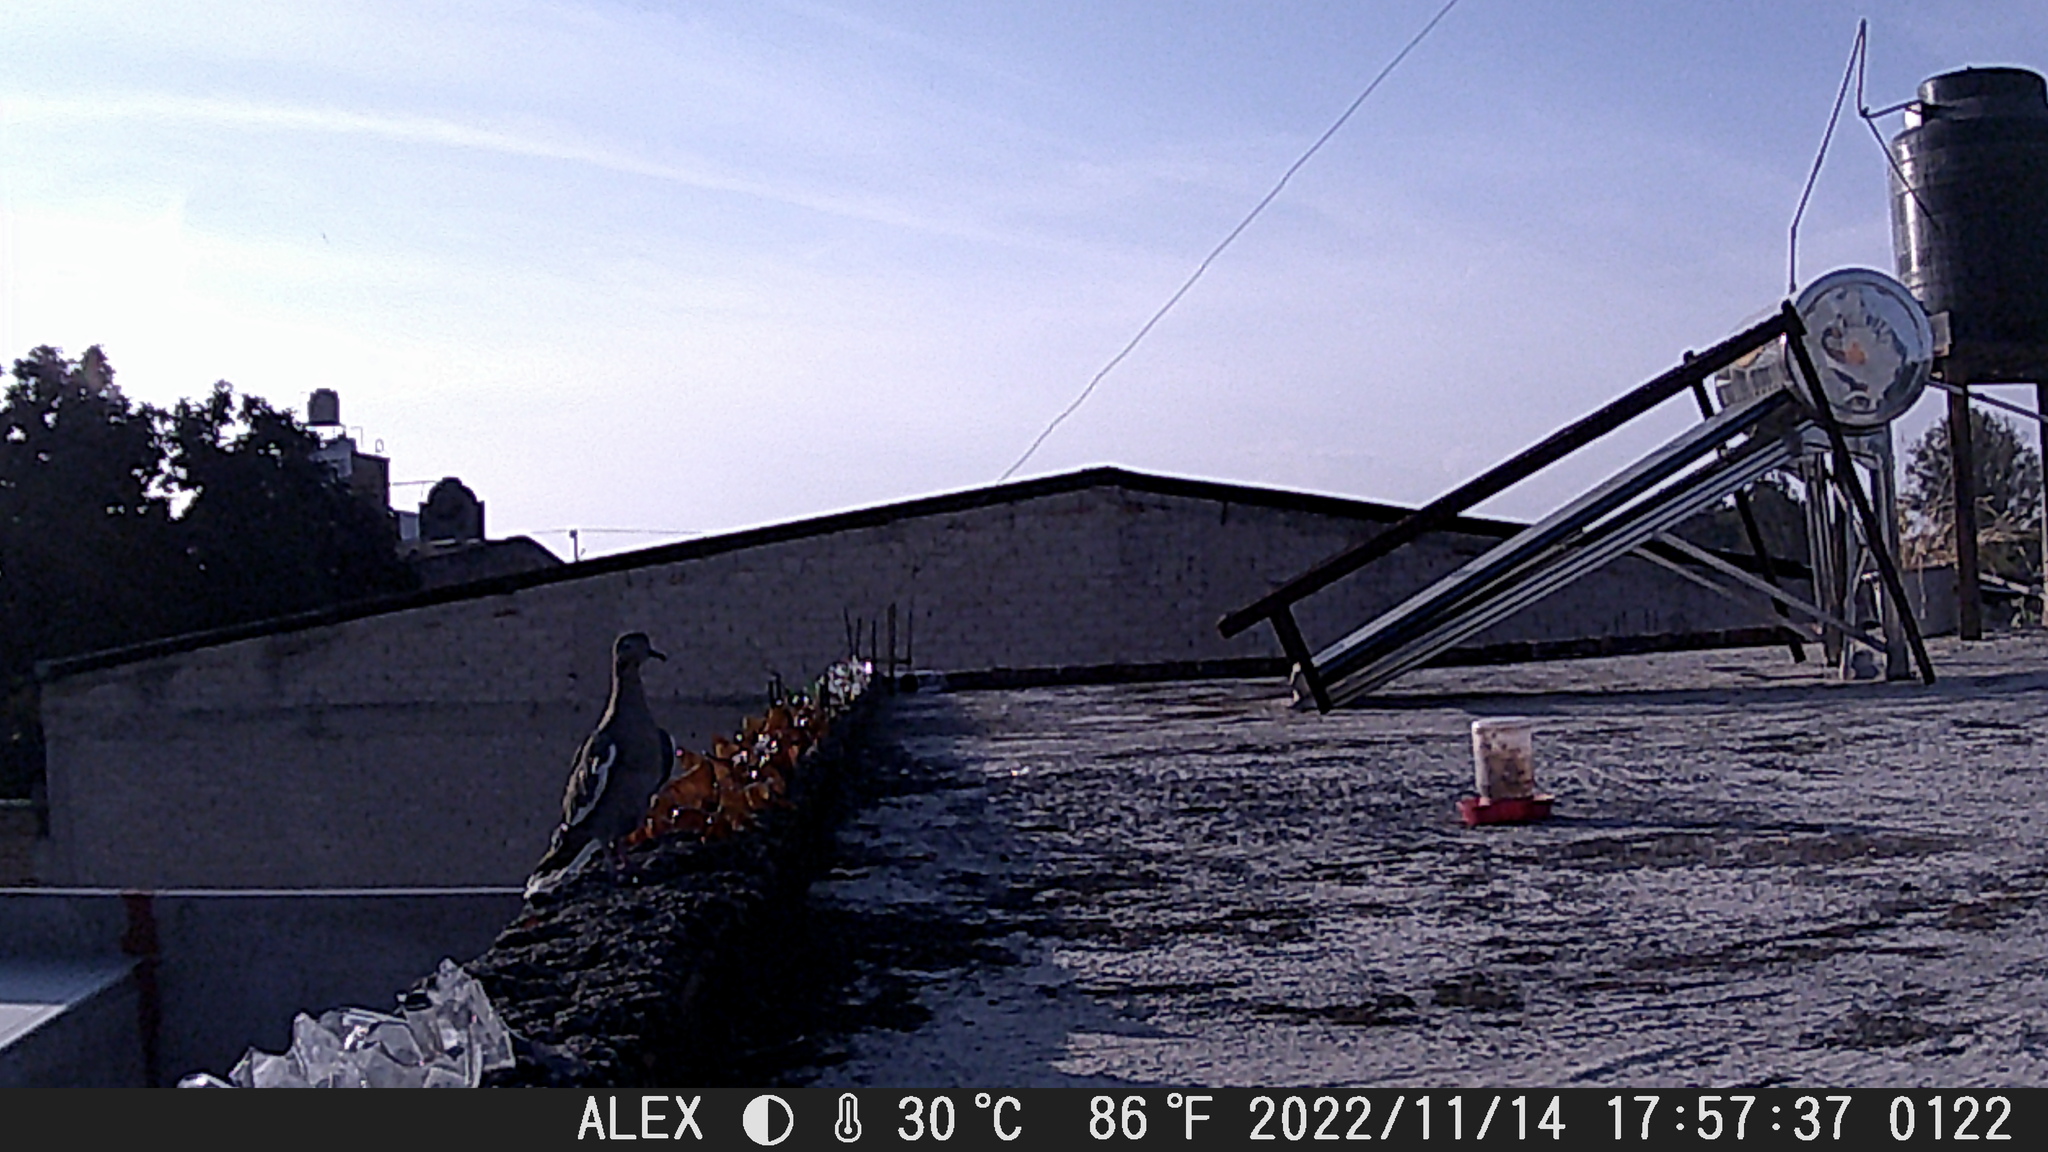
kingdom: Animalia
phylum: Chordata
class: Aves
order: Columbiformes
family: Columbidae
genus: Zenaida
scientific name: Zenaida asiatica
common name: White-winged dove
